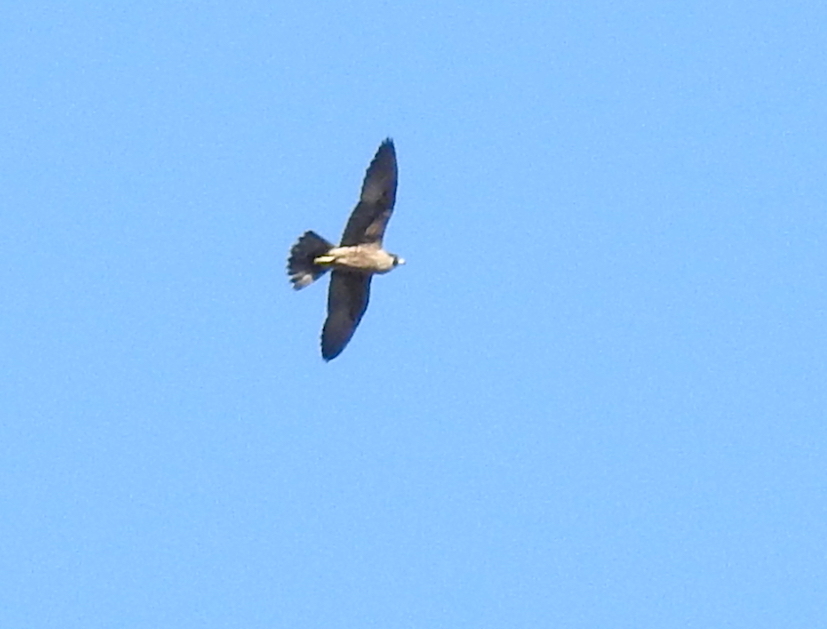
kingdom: Animalia
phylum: Chordata
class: Aves
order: Falconiformes
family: Falconidae
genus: Falco
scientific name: Falco peregrinus
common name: Peregrine falcon
